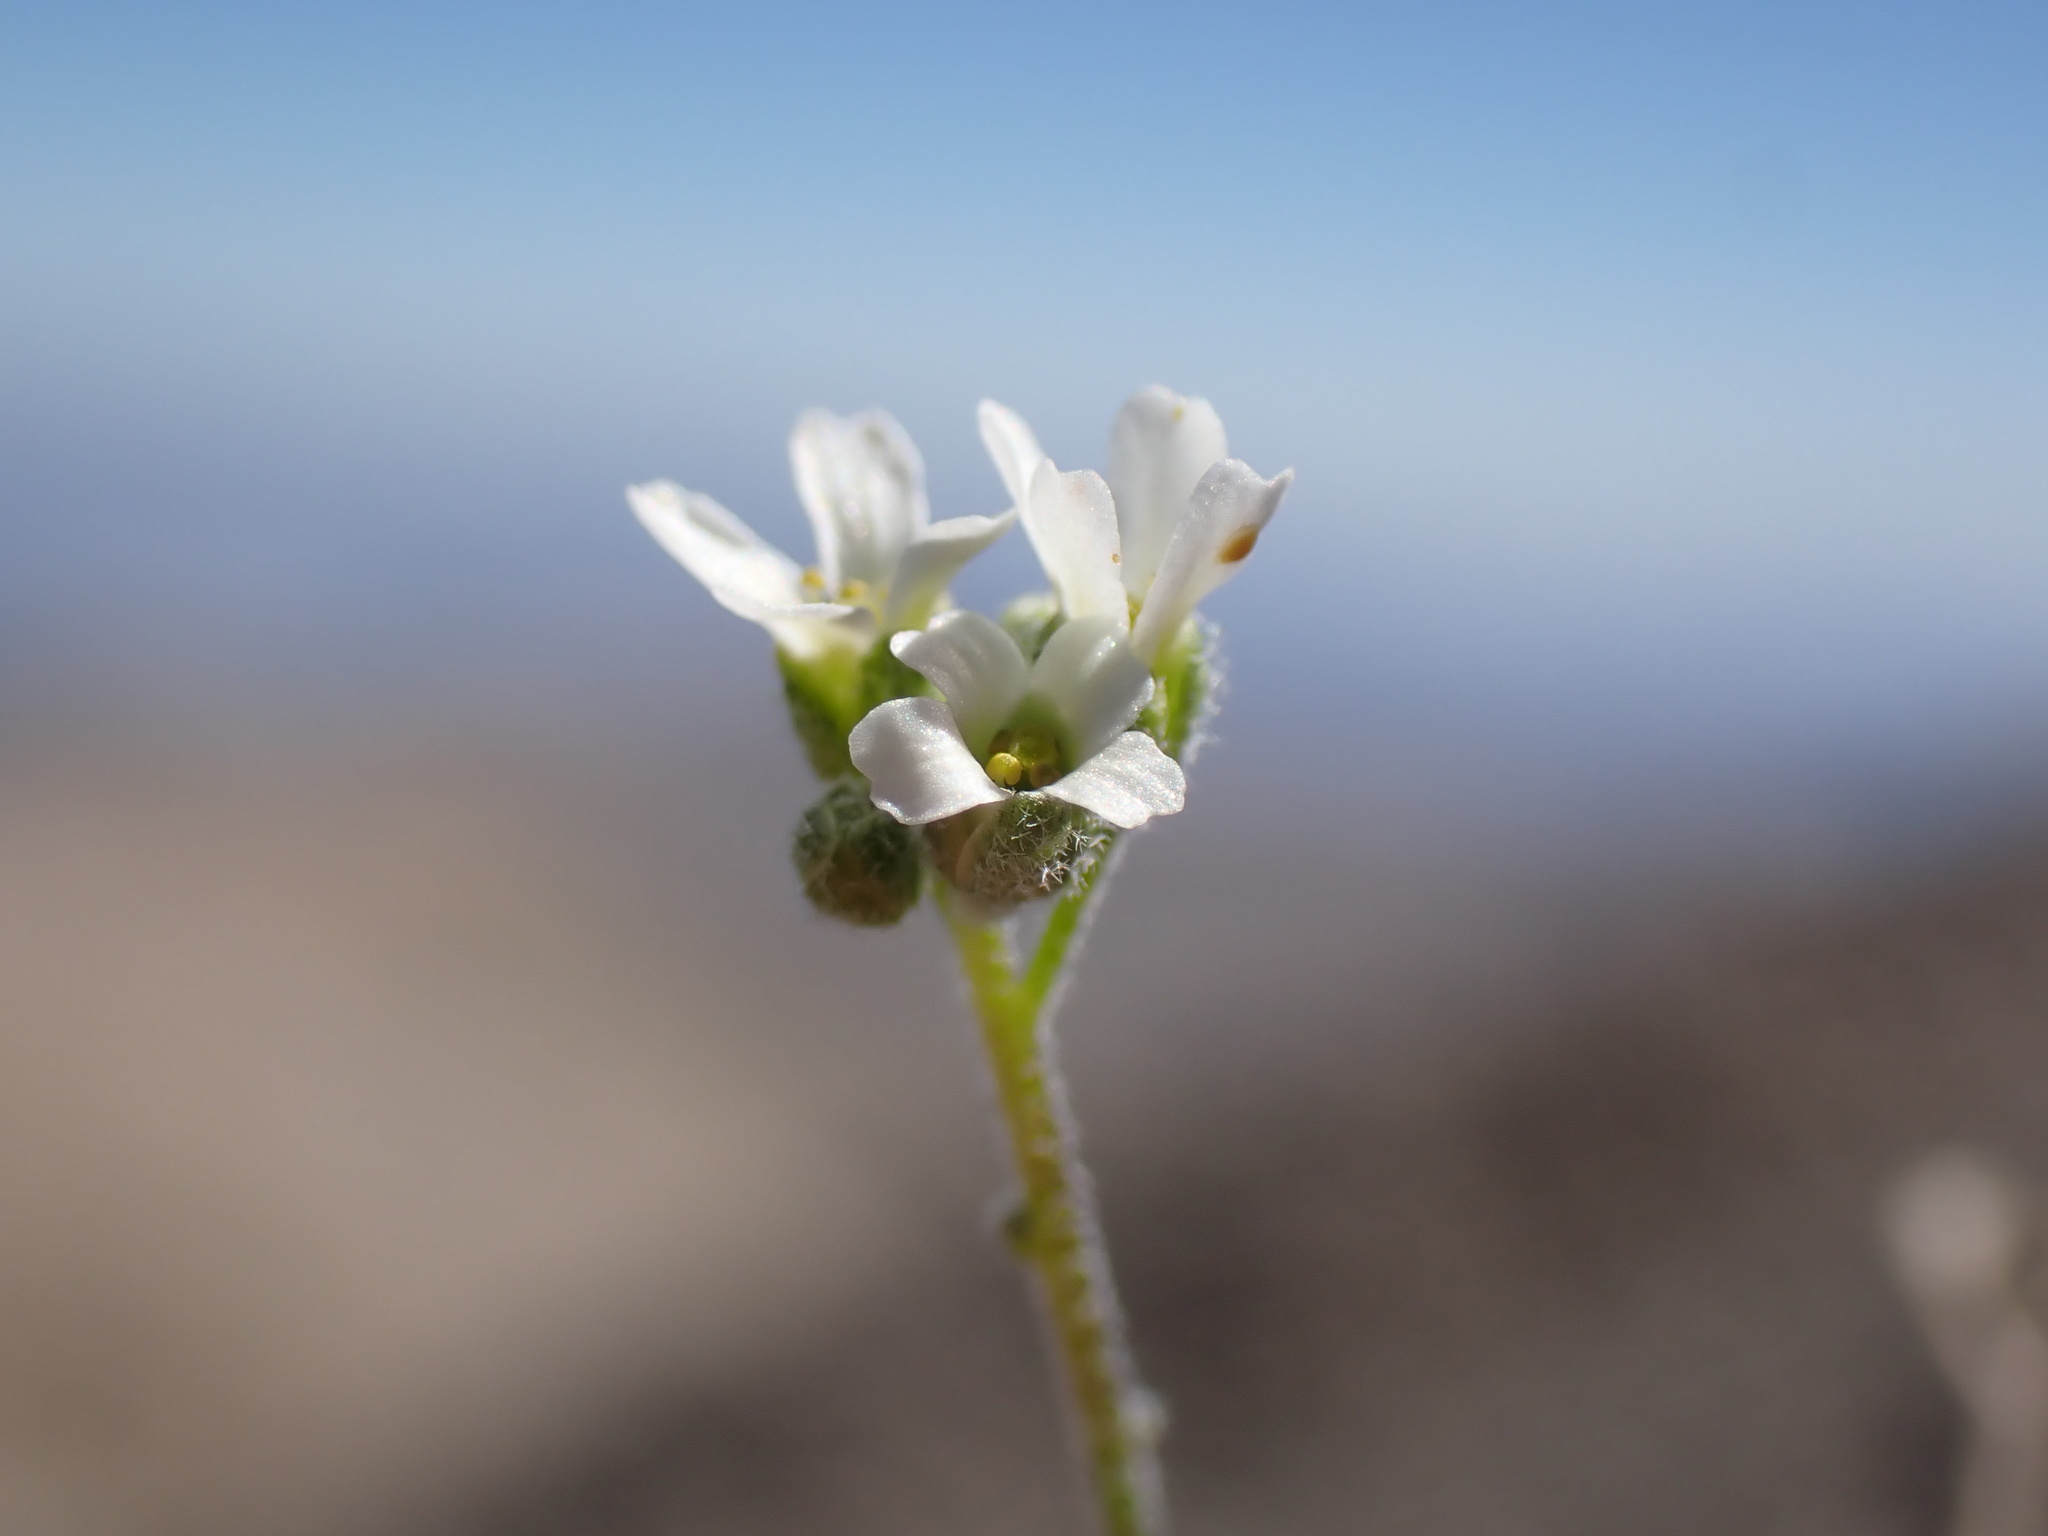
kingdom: Plantae
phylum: Tracheophyta
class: Magnoliopsida
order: Brassicales
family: Brassicaceae
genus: Draba
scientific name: Draba breweri
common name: Cushion draba
